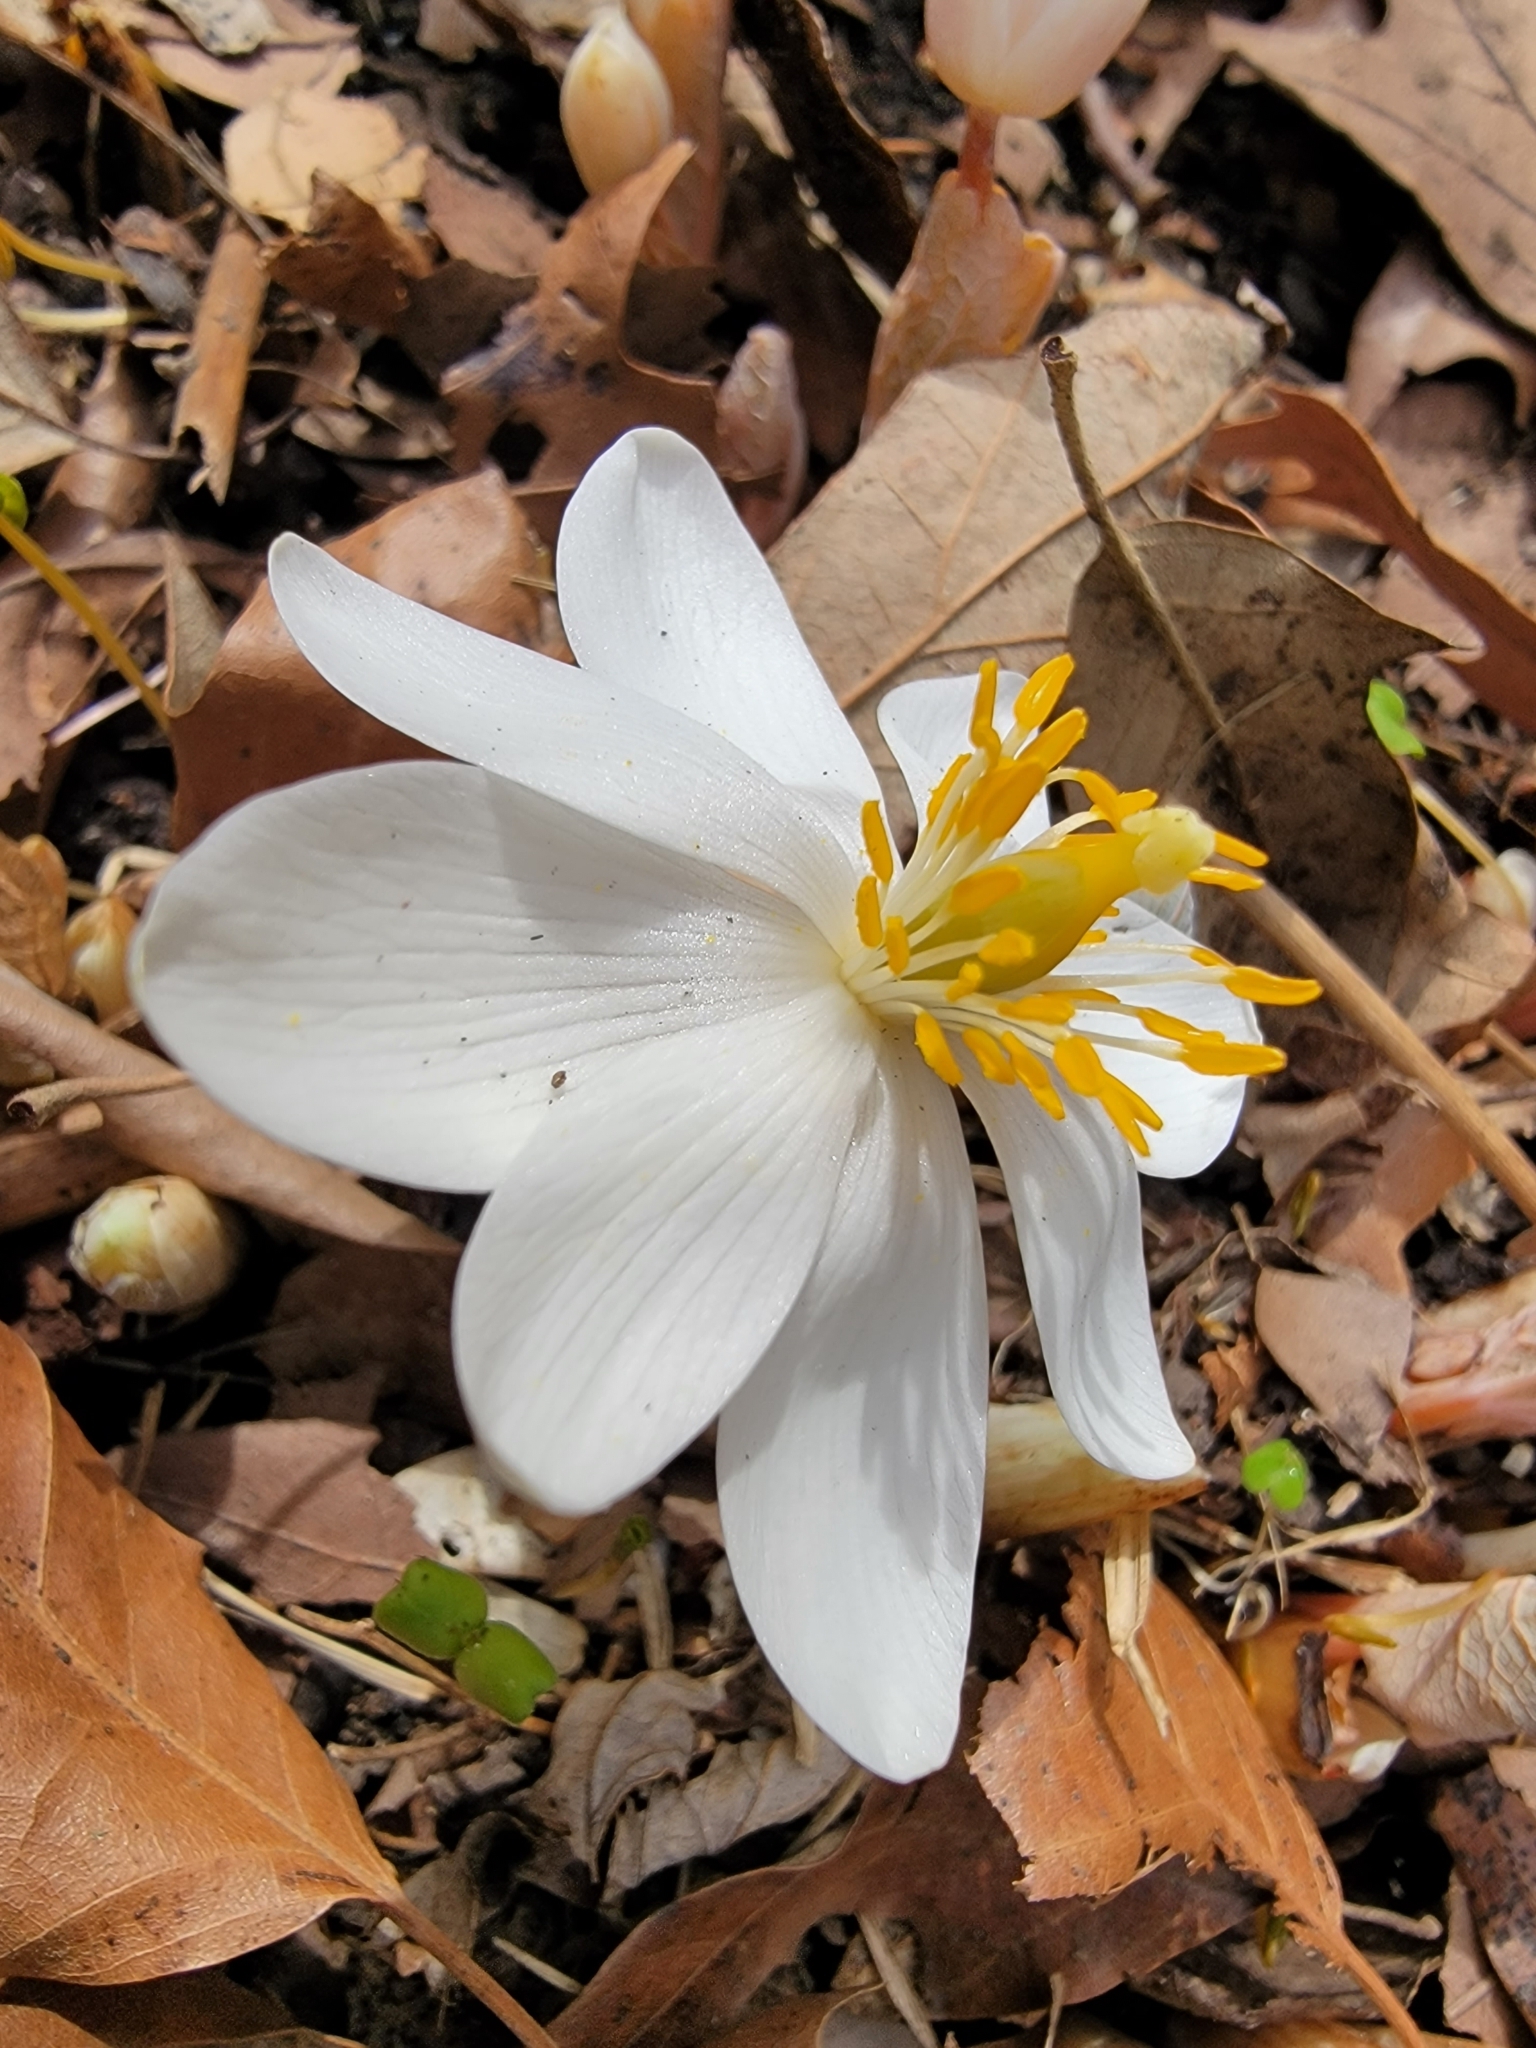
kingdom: Plantae
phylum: Tracheophyta
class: Magnoliopsida
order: Ranunculales
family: Papaveraceae
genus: Sanguinaria
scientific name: Sanguinaria canadensis
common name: Bloodroot
